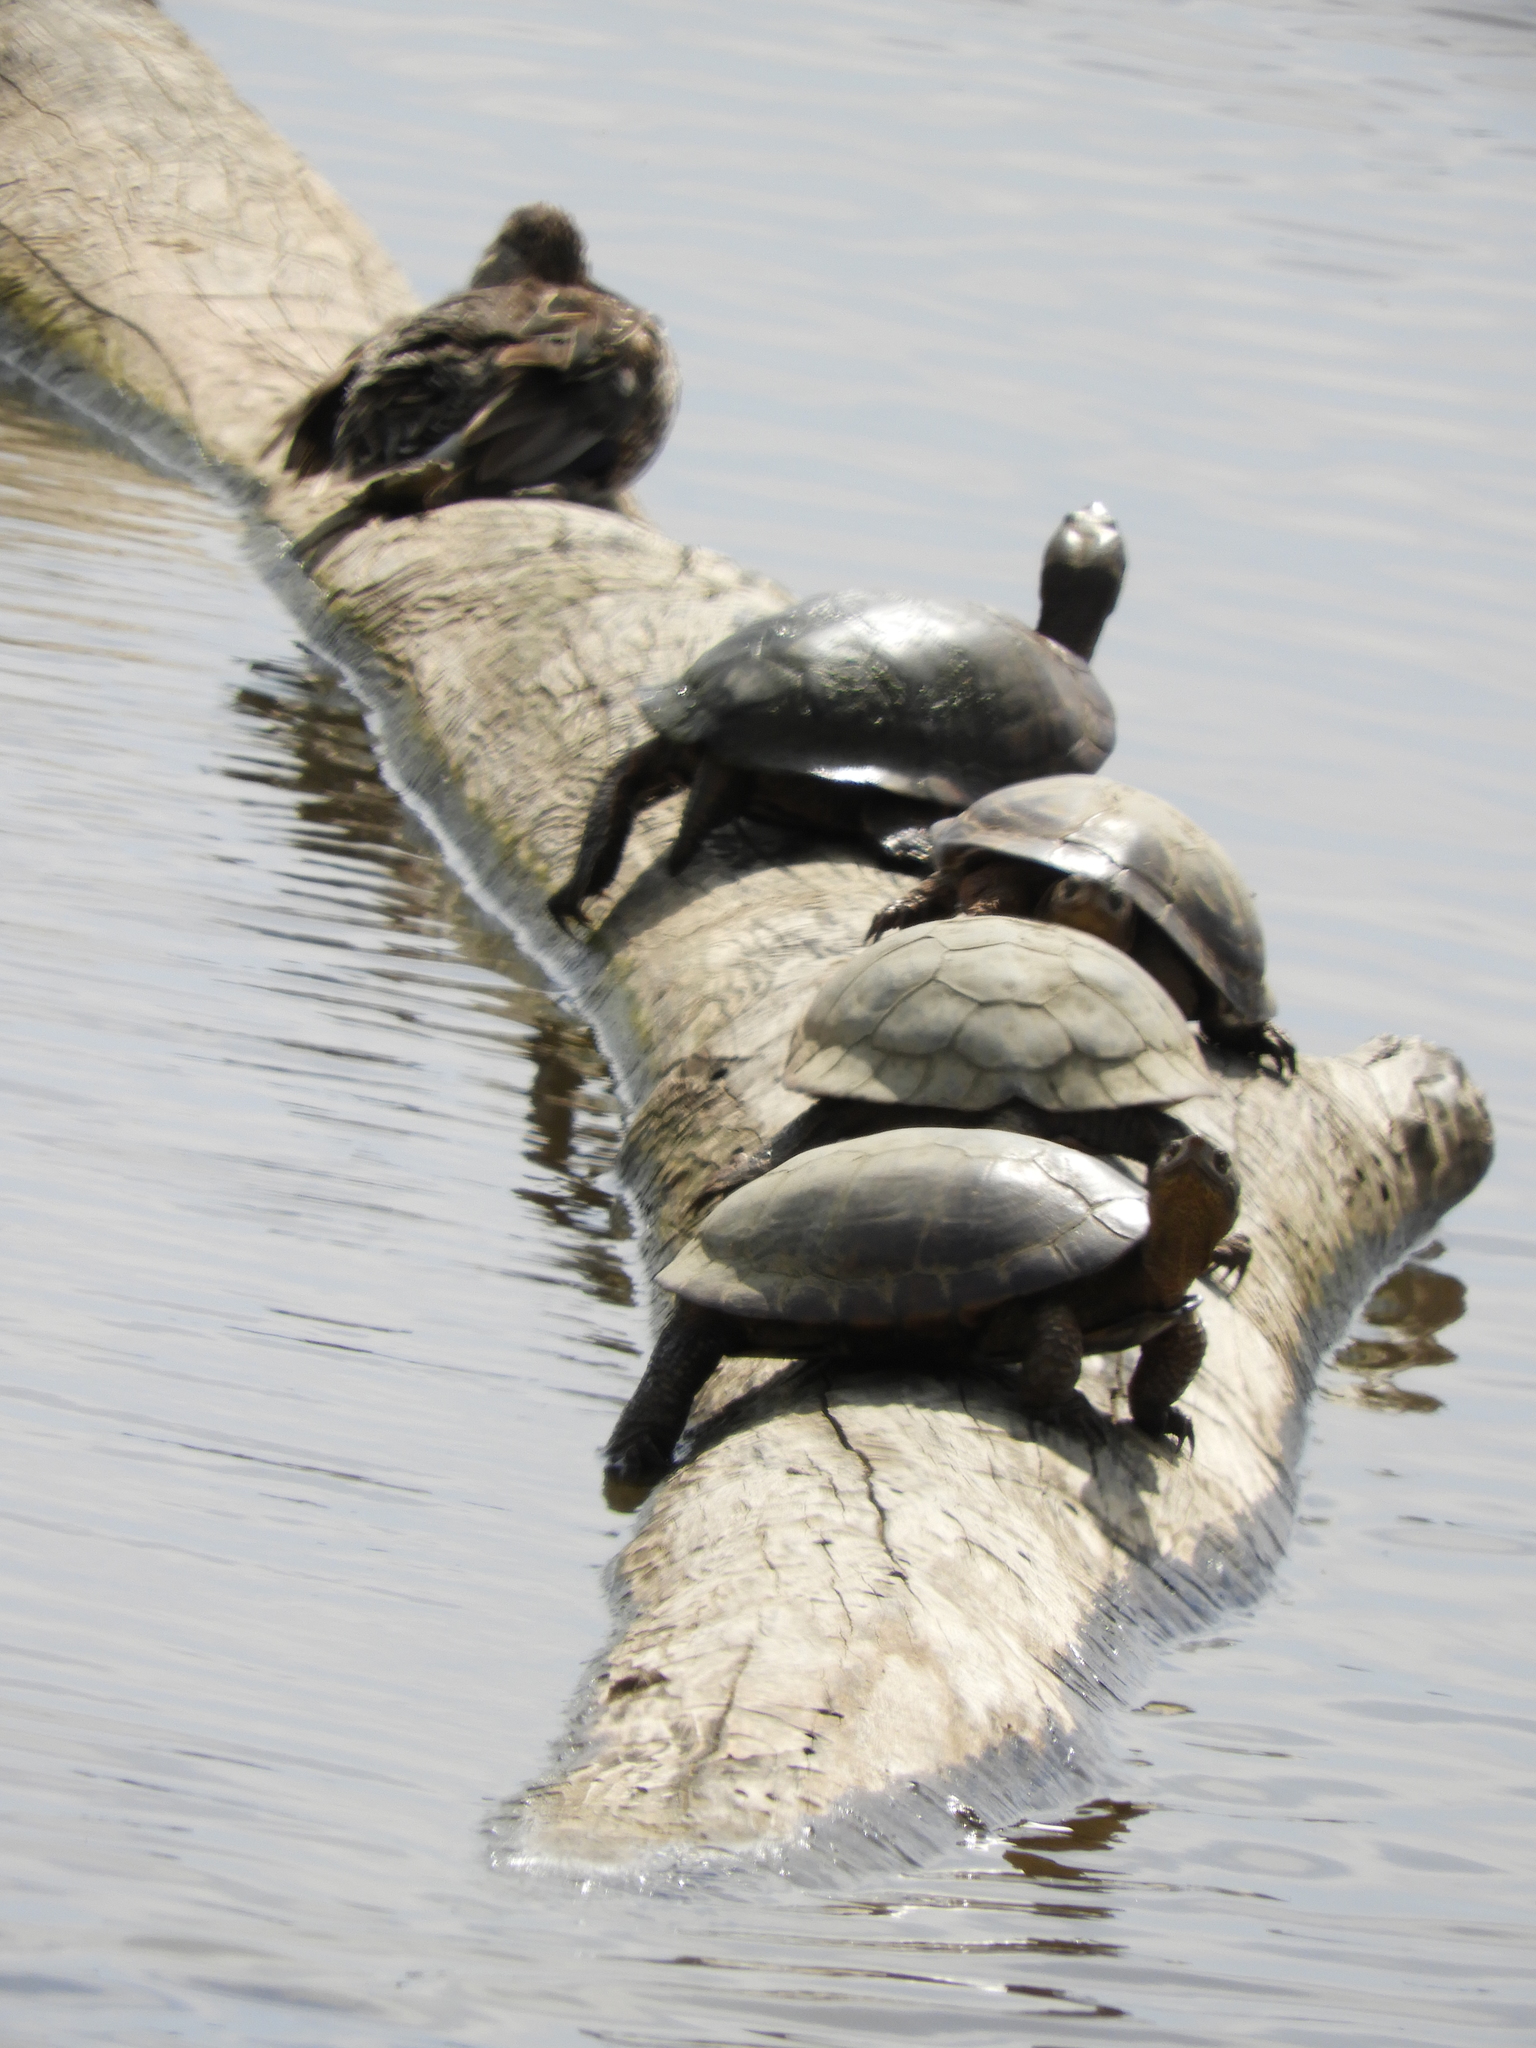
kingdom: Animalia
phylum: Chordata
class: Testudines
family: Emydidae
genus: Actinemys
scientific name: Actinemys marmorata
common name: Western pond turtle
